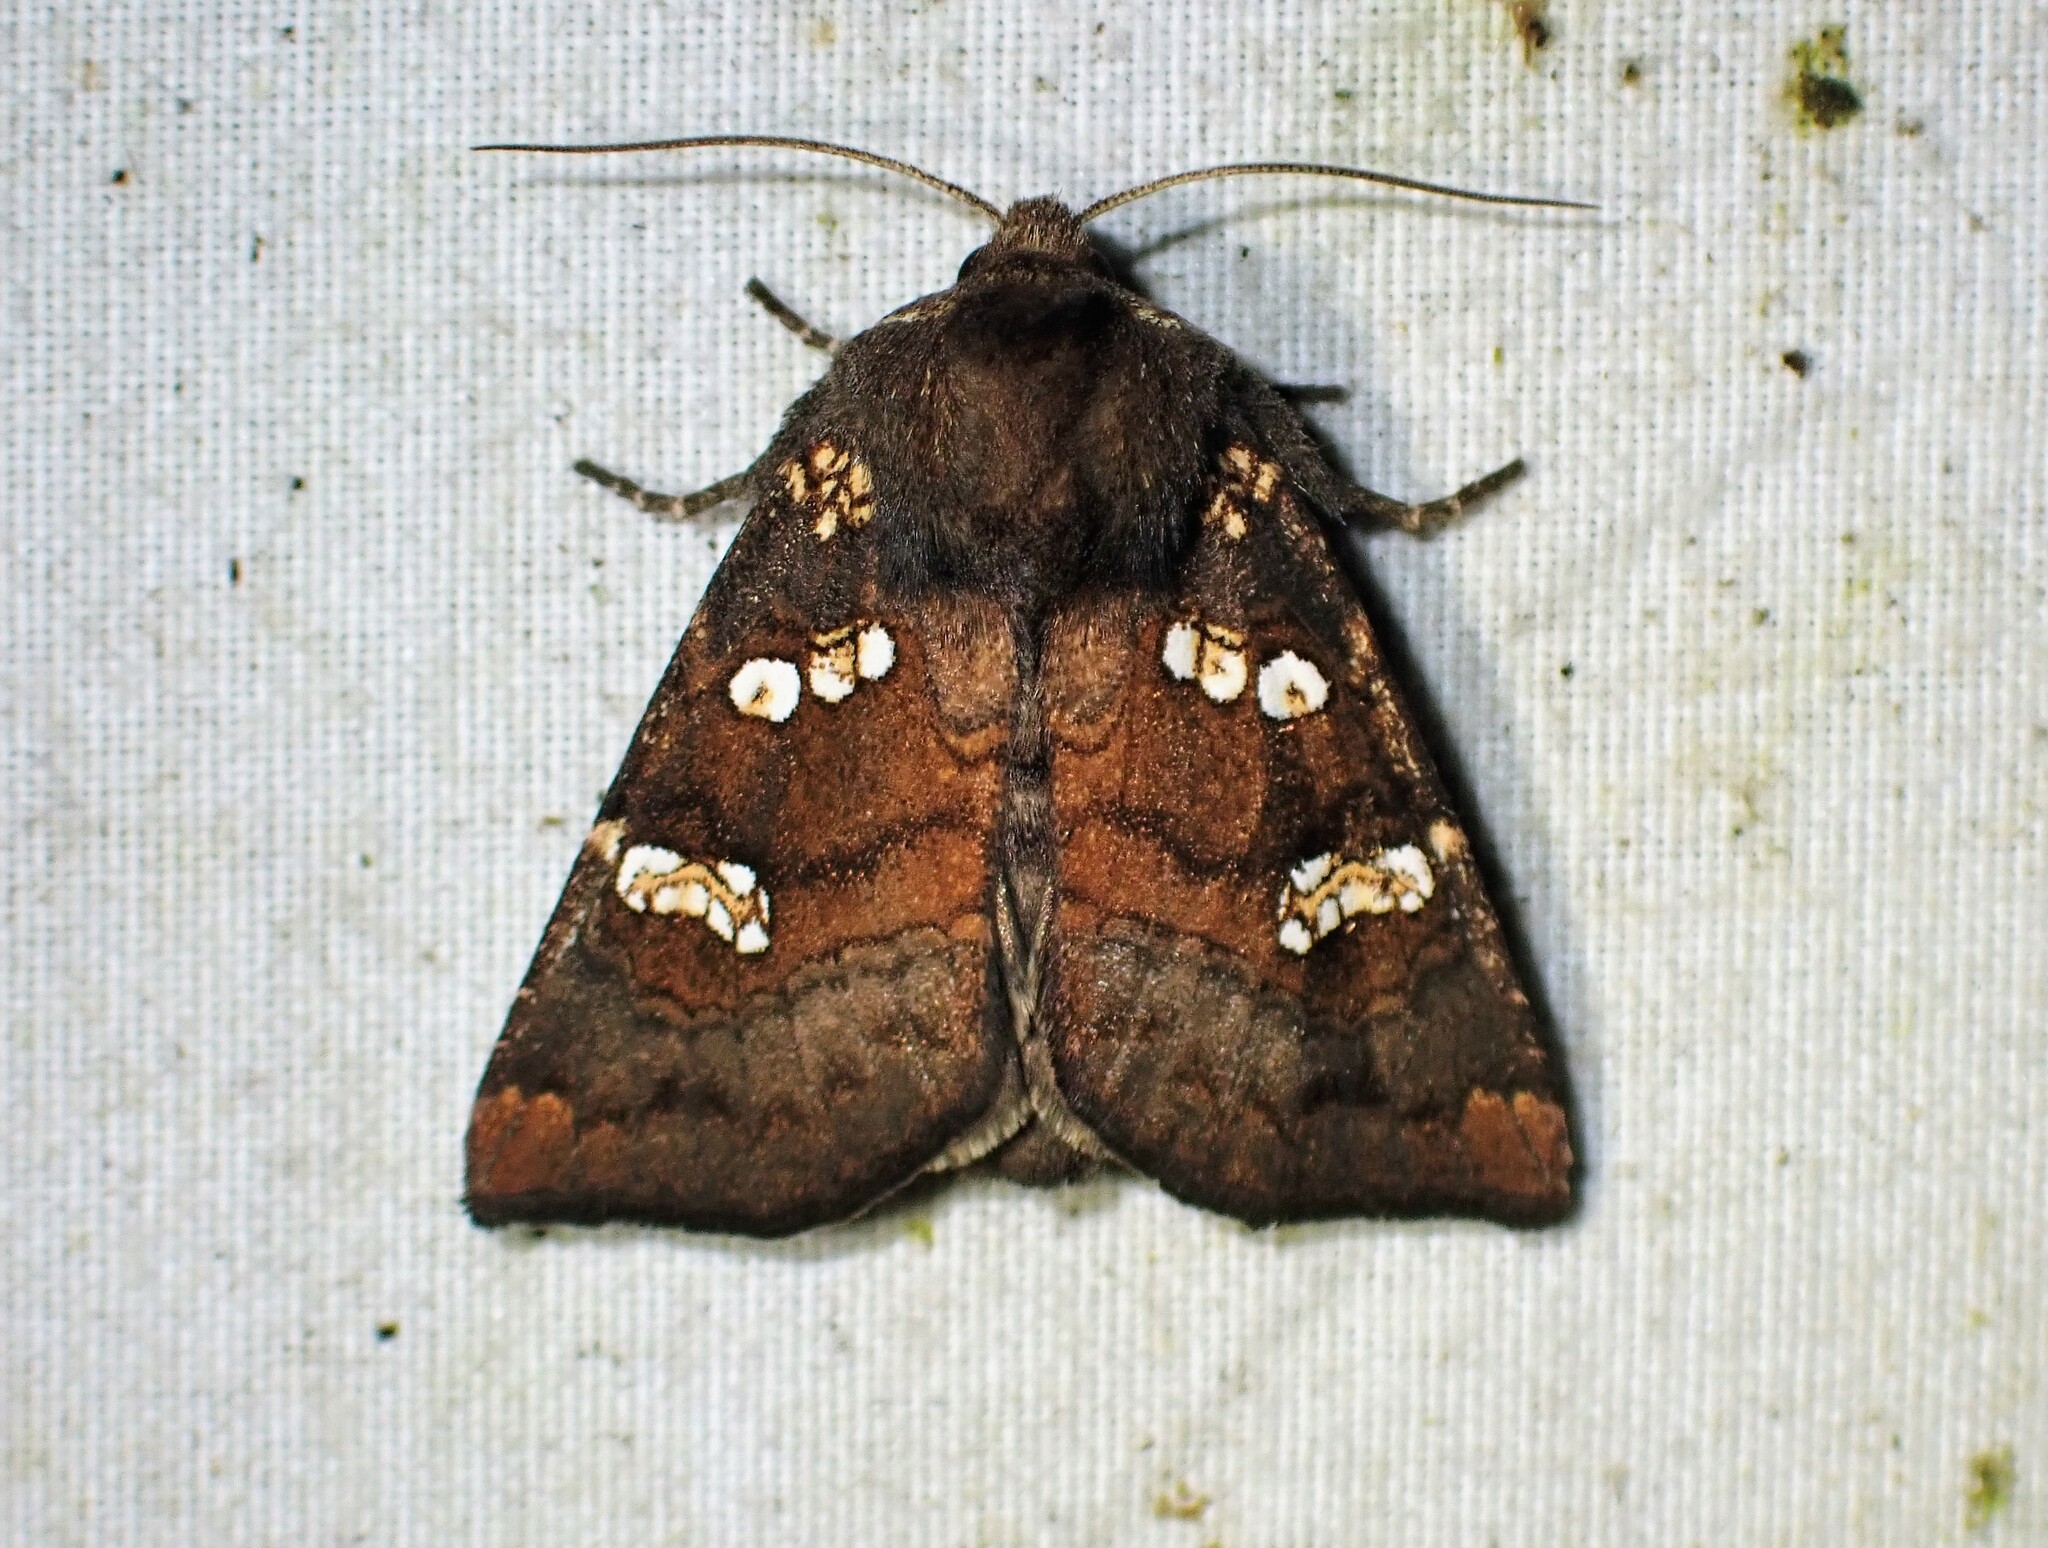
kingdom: Animalia
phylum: Arthropoda
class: Insecta
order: Lepidoptera
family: Noctuidae
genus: Papaipema
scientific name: Papaipema unimoda
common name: Meadow rue borer moth
